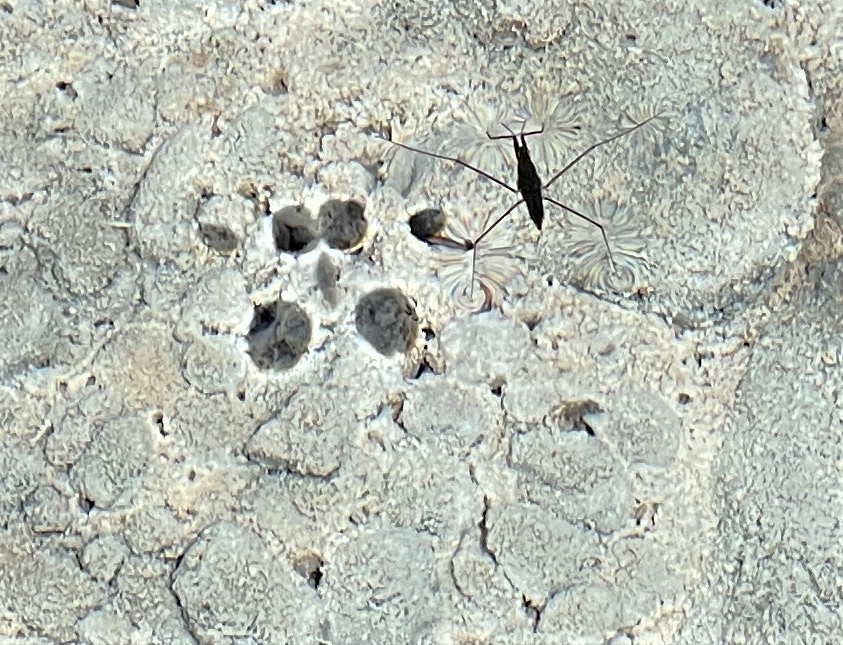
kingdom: Animalia
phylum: Arthropoda
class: Insecta
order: Hemiptera
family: Gerridae
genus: Aquarius
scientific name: Aquarius remigis
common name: Common water strider
